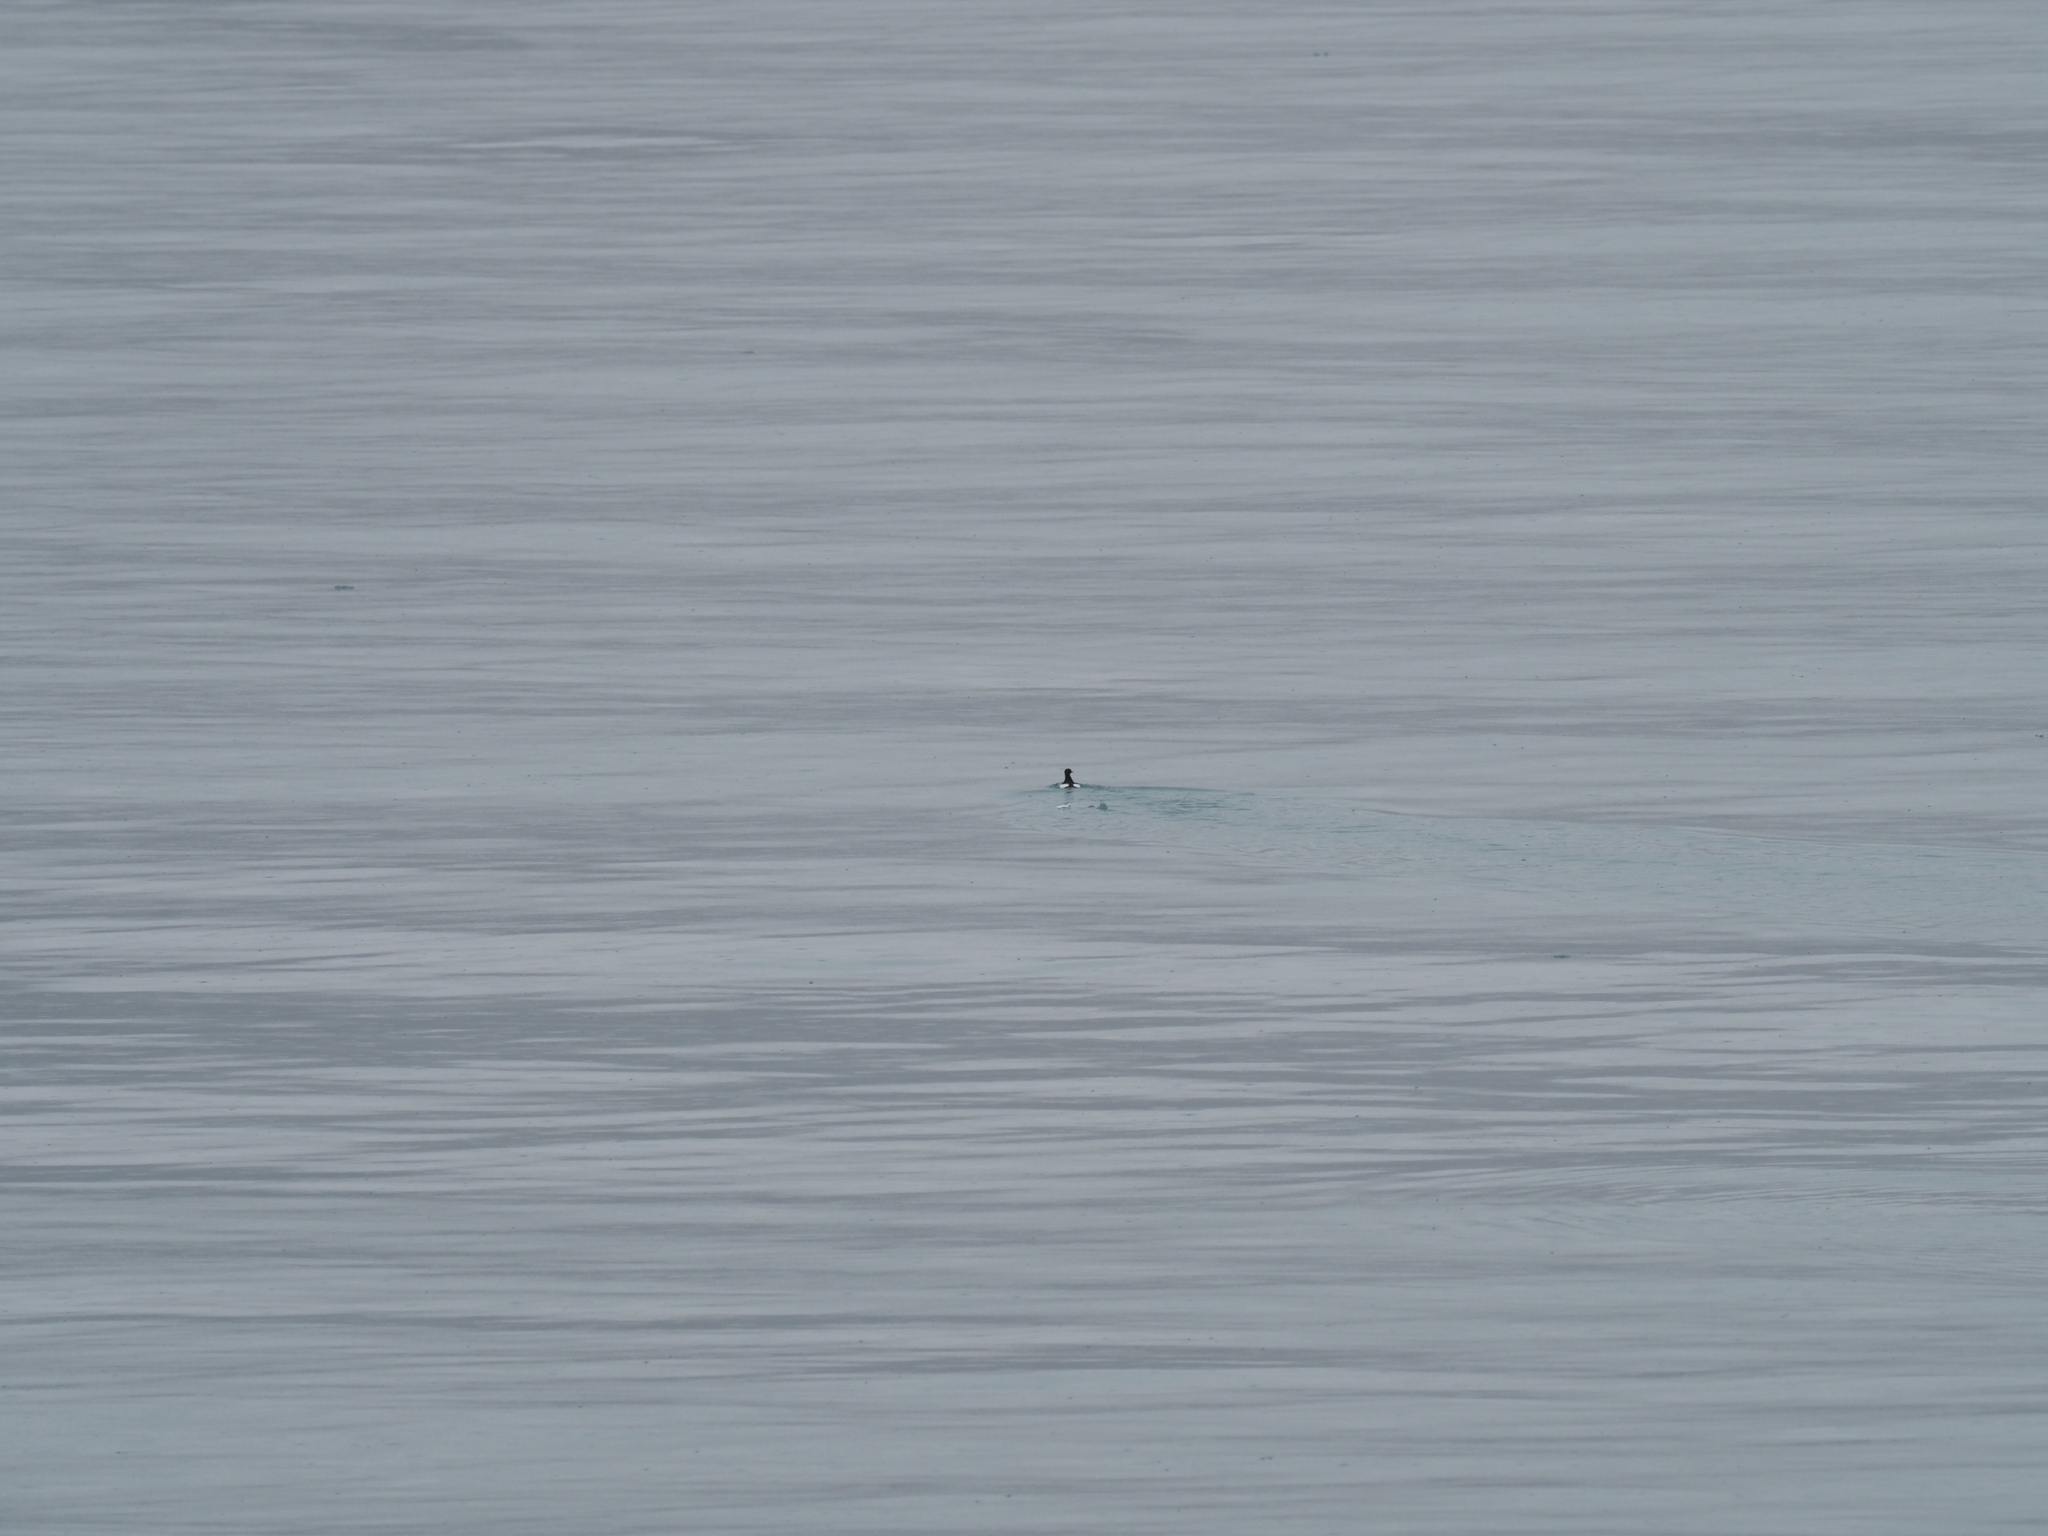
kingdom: Animalia
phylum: Chordata
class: Aves
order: Charadriiformes
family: Alcidae
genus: Cepphus
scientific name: Cepphus grylle
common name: Black guillemot
